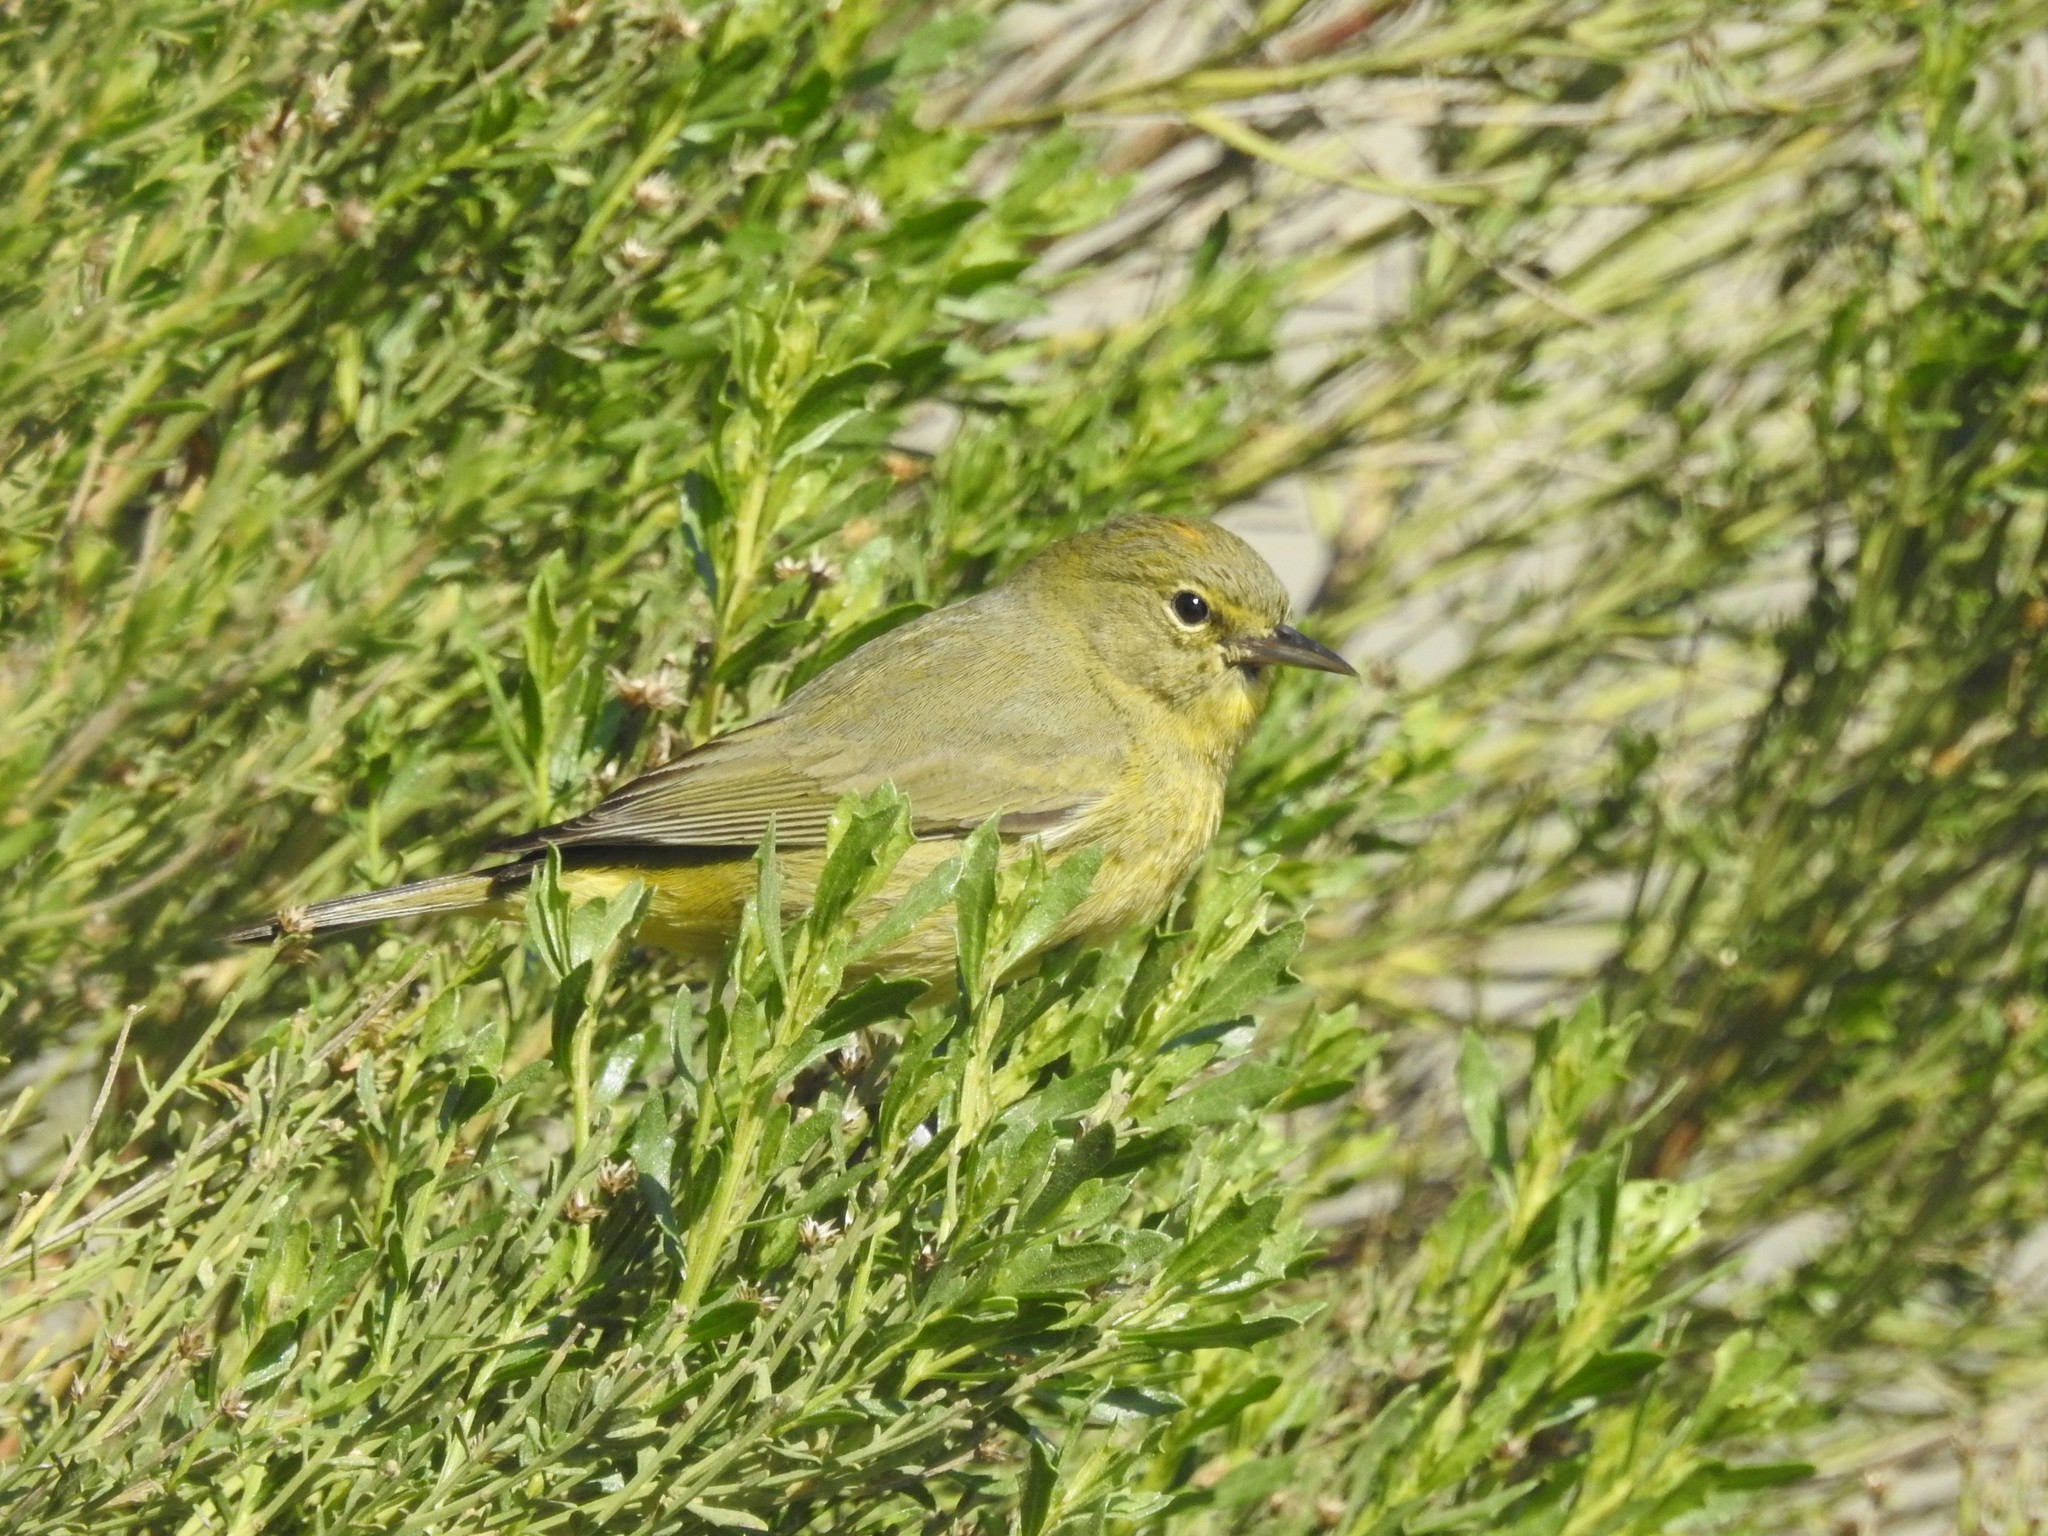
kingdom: Animalia
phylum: Chordata
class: Aves
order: Passeriformes
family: Parulidae
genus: Leiothlypis
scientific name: Leiothlypis celata
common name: Orange-crowned warbler
